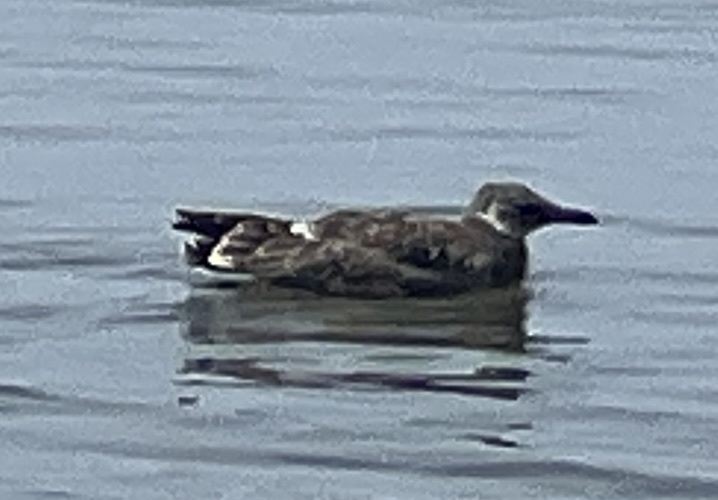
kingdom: Animalia
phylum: Chordata
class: Aves
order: Charadriiformes
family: Laridae
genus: Leucophaeus
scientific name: Leucophaeus atricilla
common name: Laughing gull
